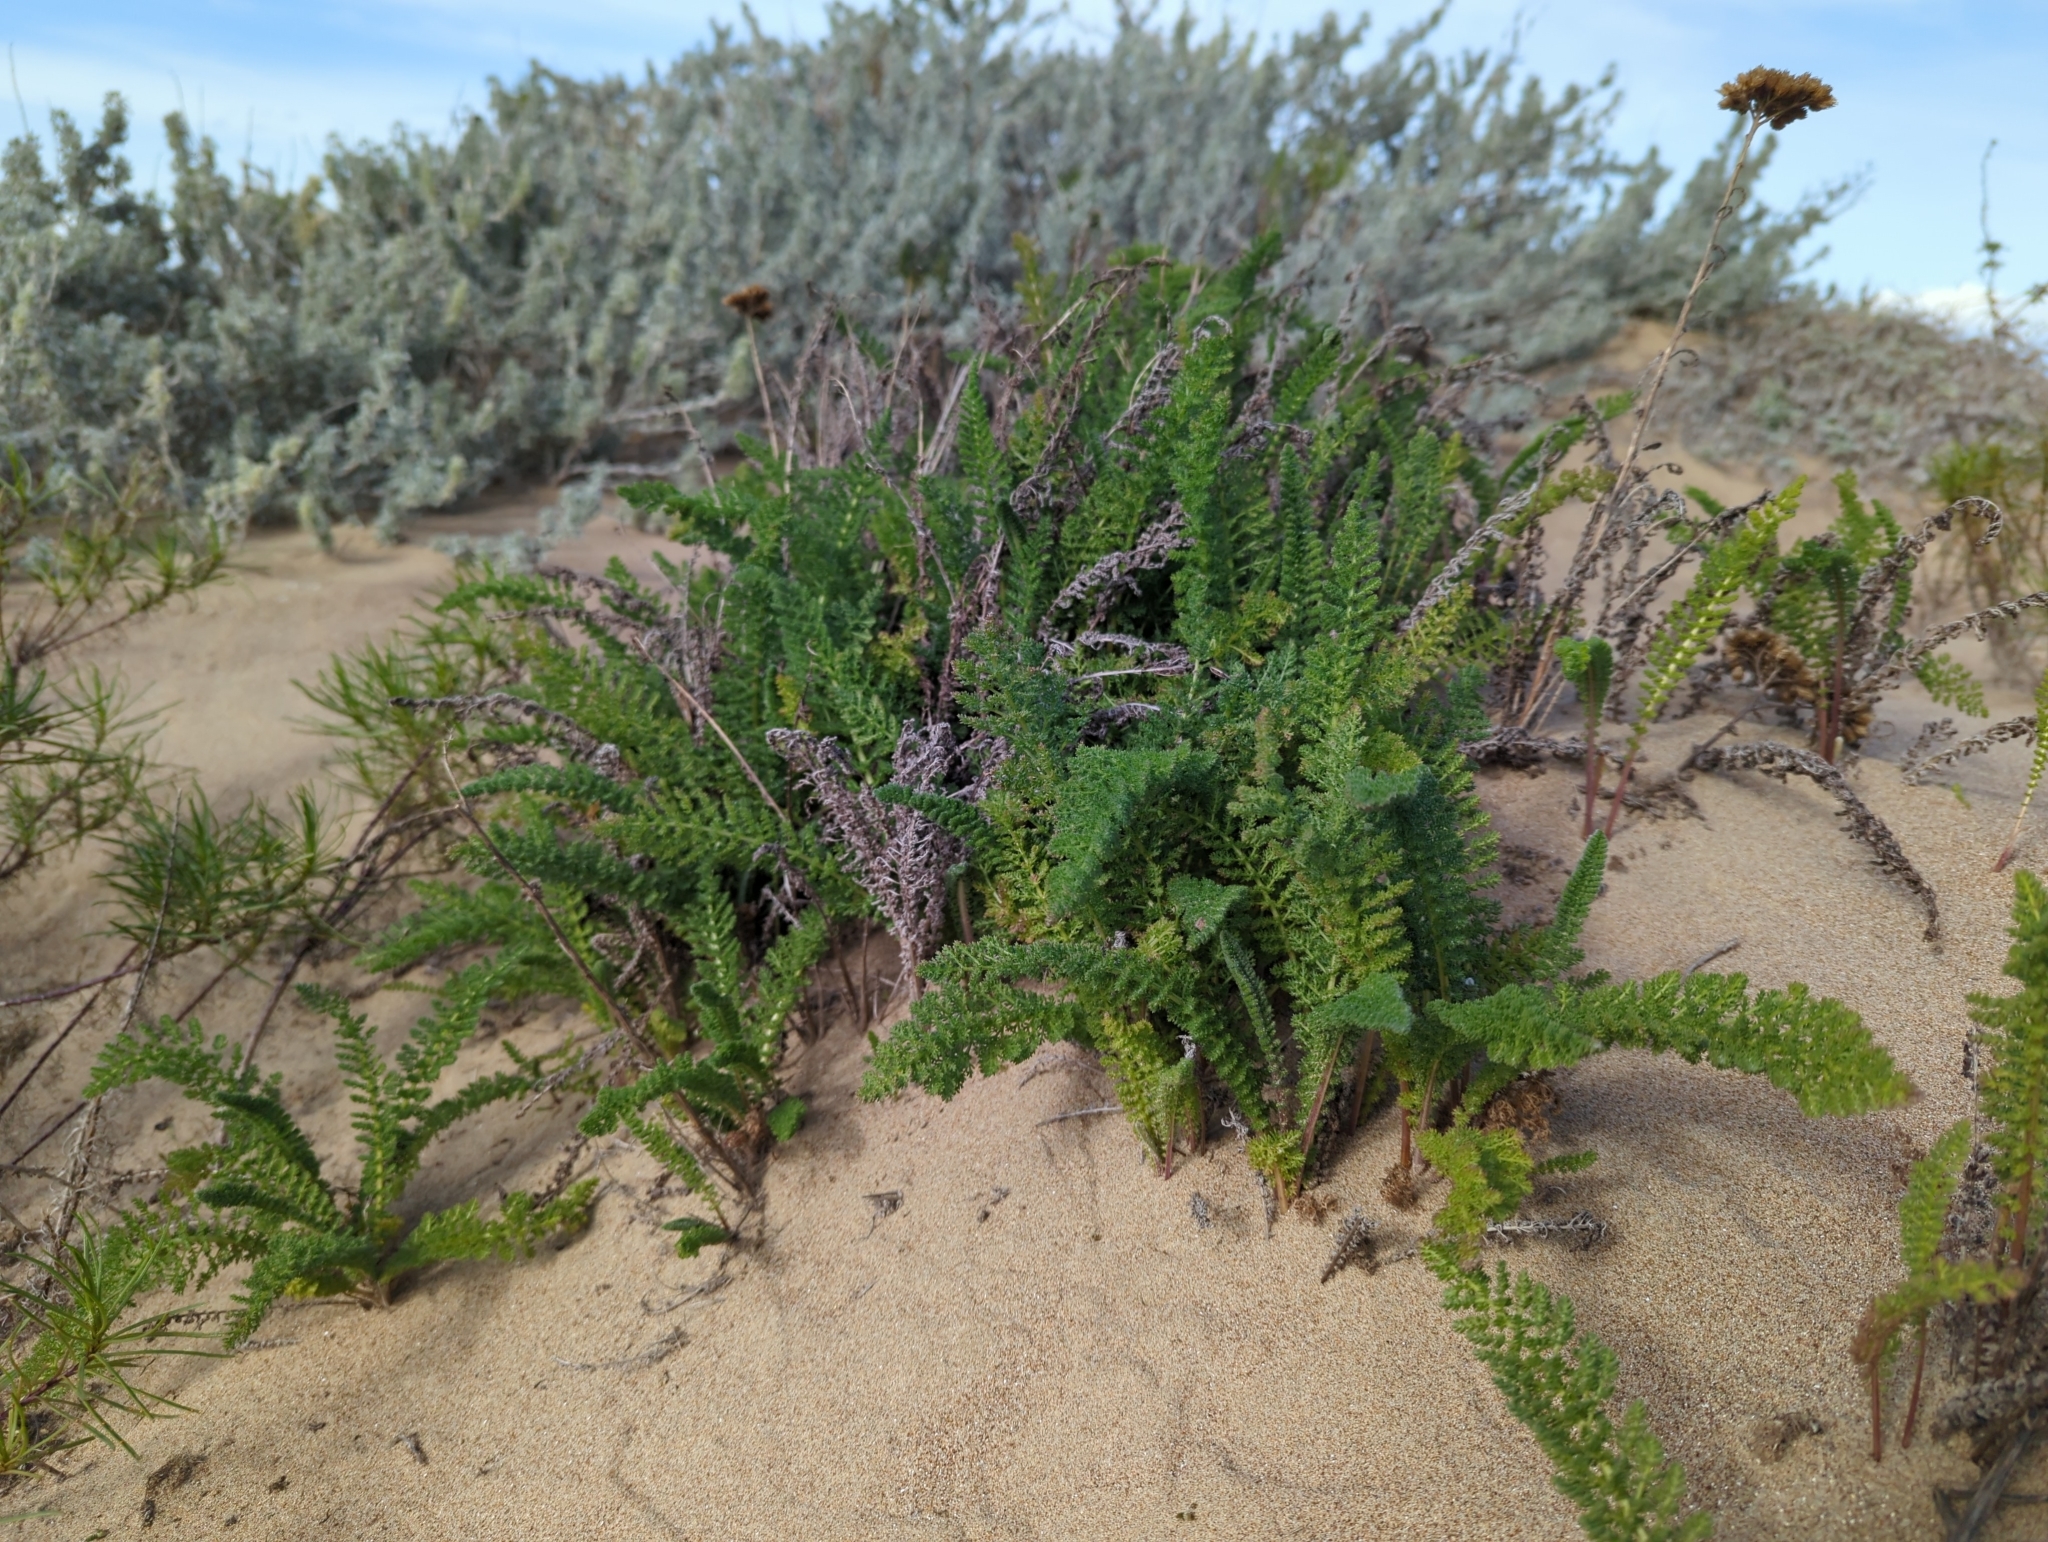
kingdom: Plantae
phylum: Tracheophyta
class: Magnoliopsida
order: Asterales
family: Asteraceae
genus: Achillea
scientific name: Achillea millefolium
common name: Yarrow
